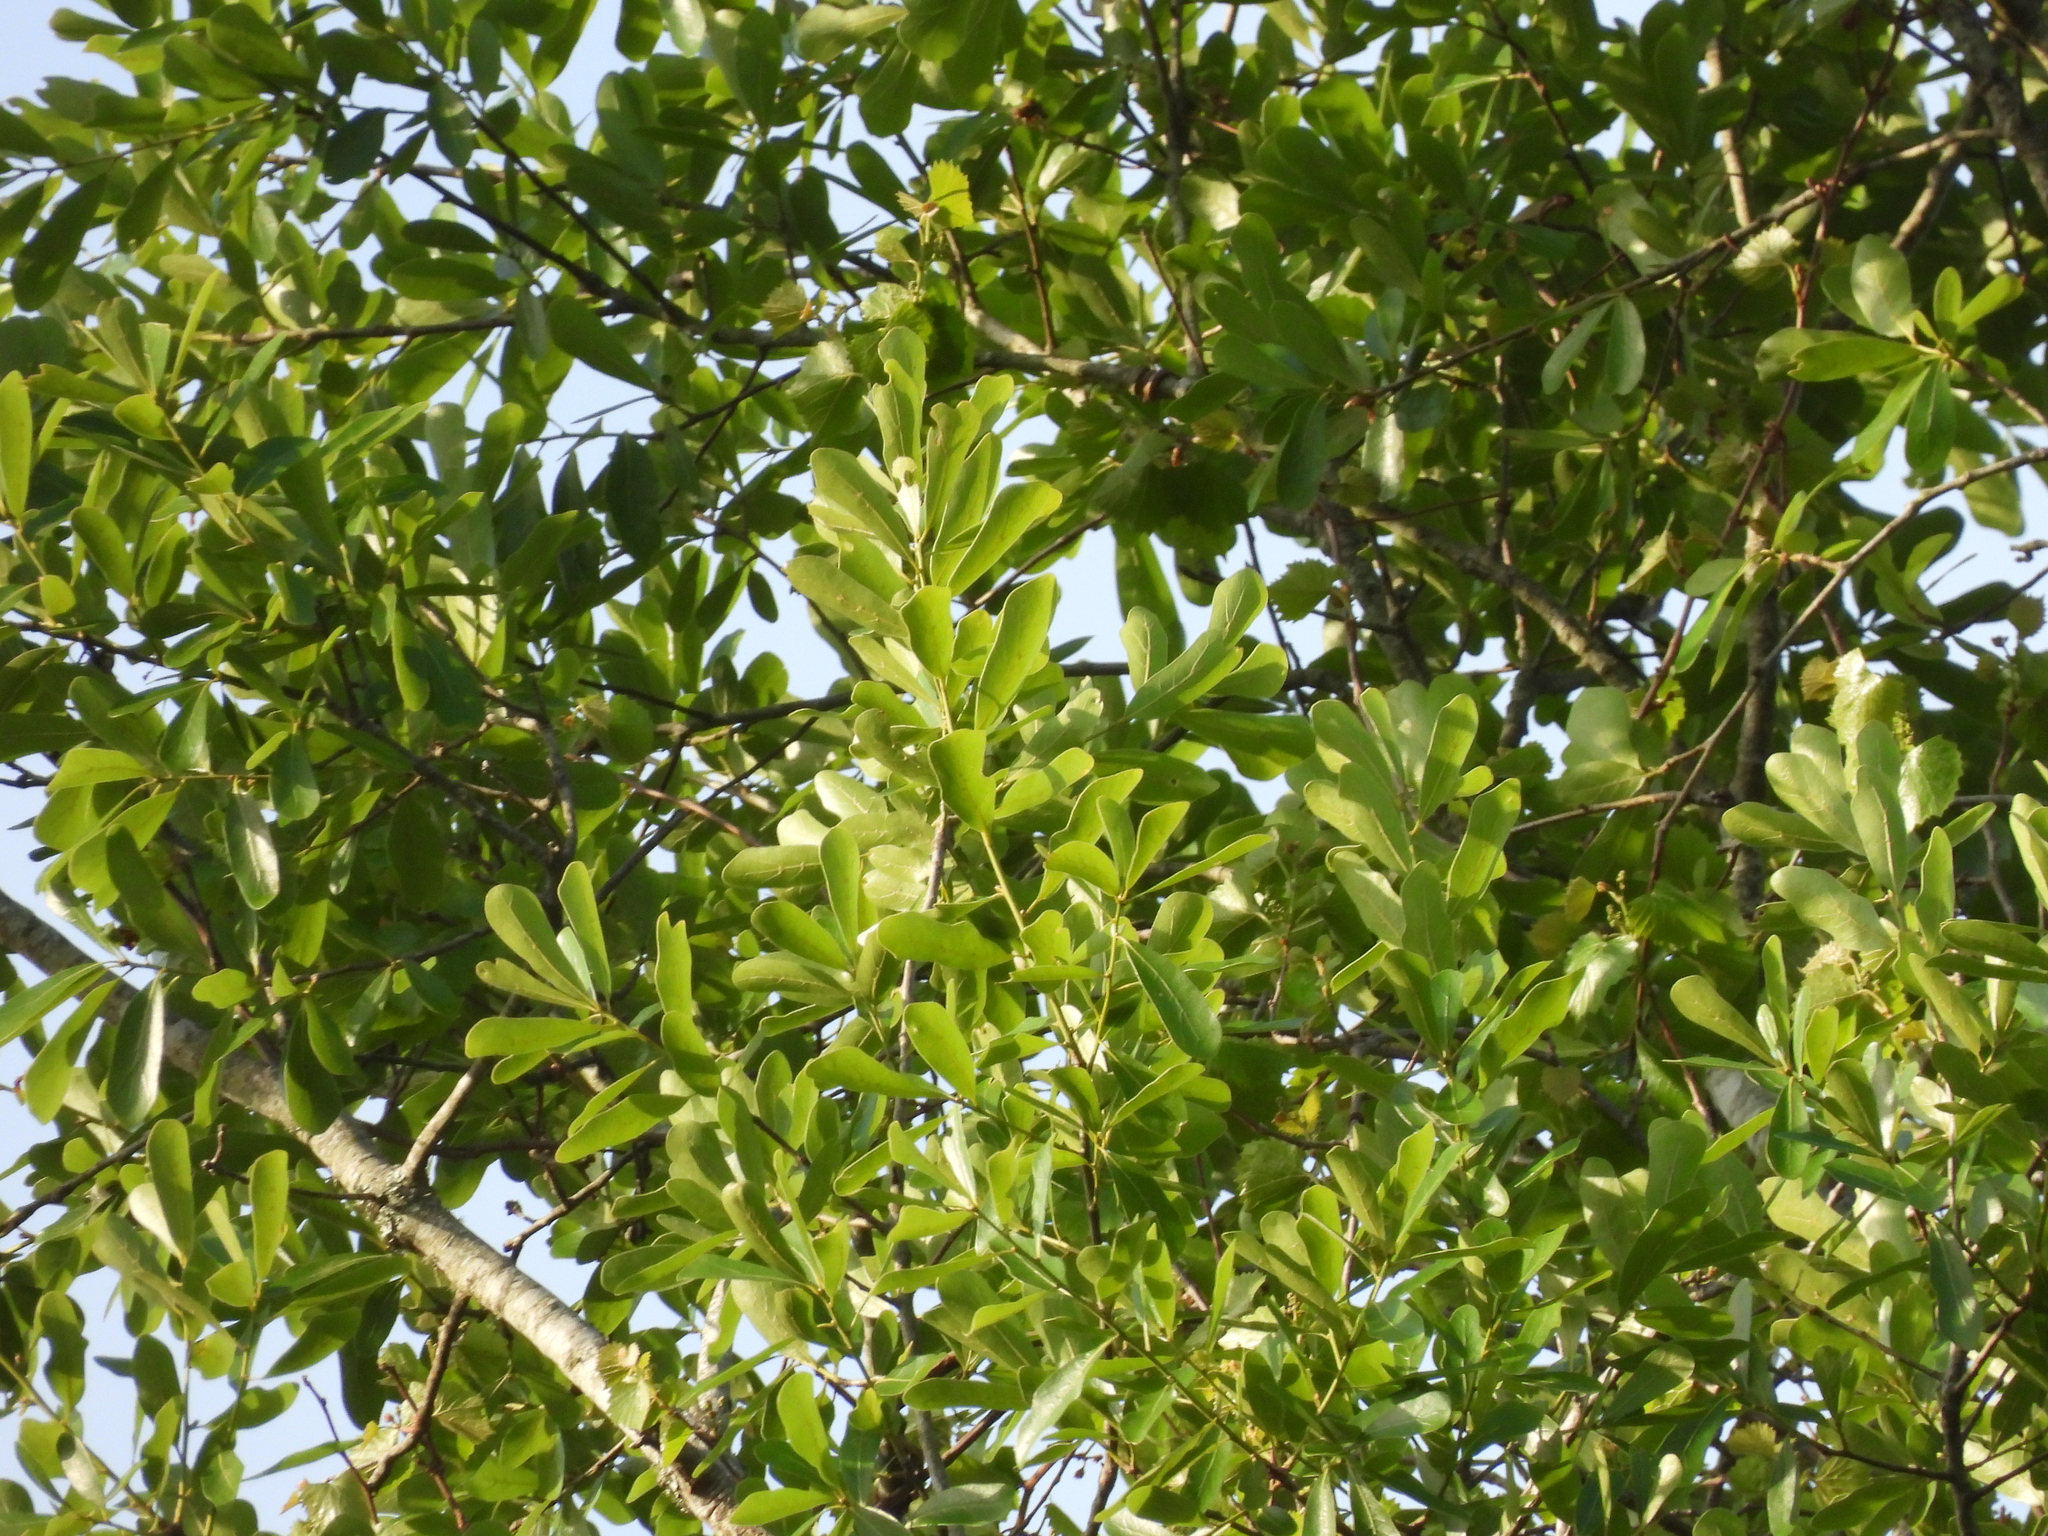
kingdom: Plantae
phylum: Tracheophyta
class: Magnoliopsida
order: Fagales
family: Fagaceae
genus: Quercus
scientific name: Quercus nigra
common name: Water oak
